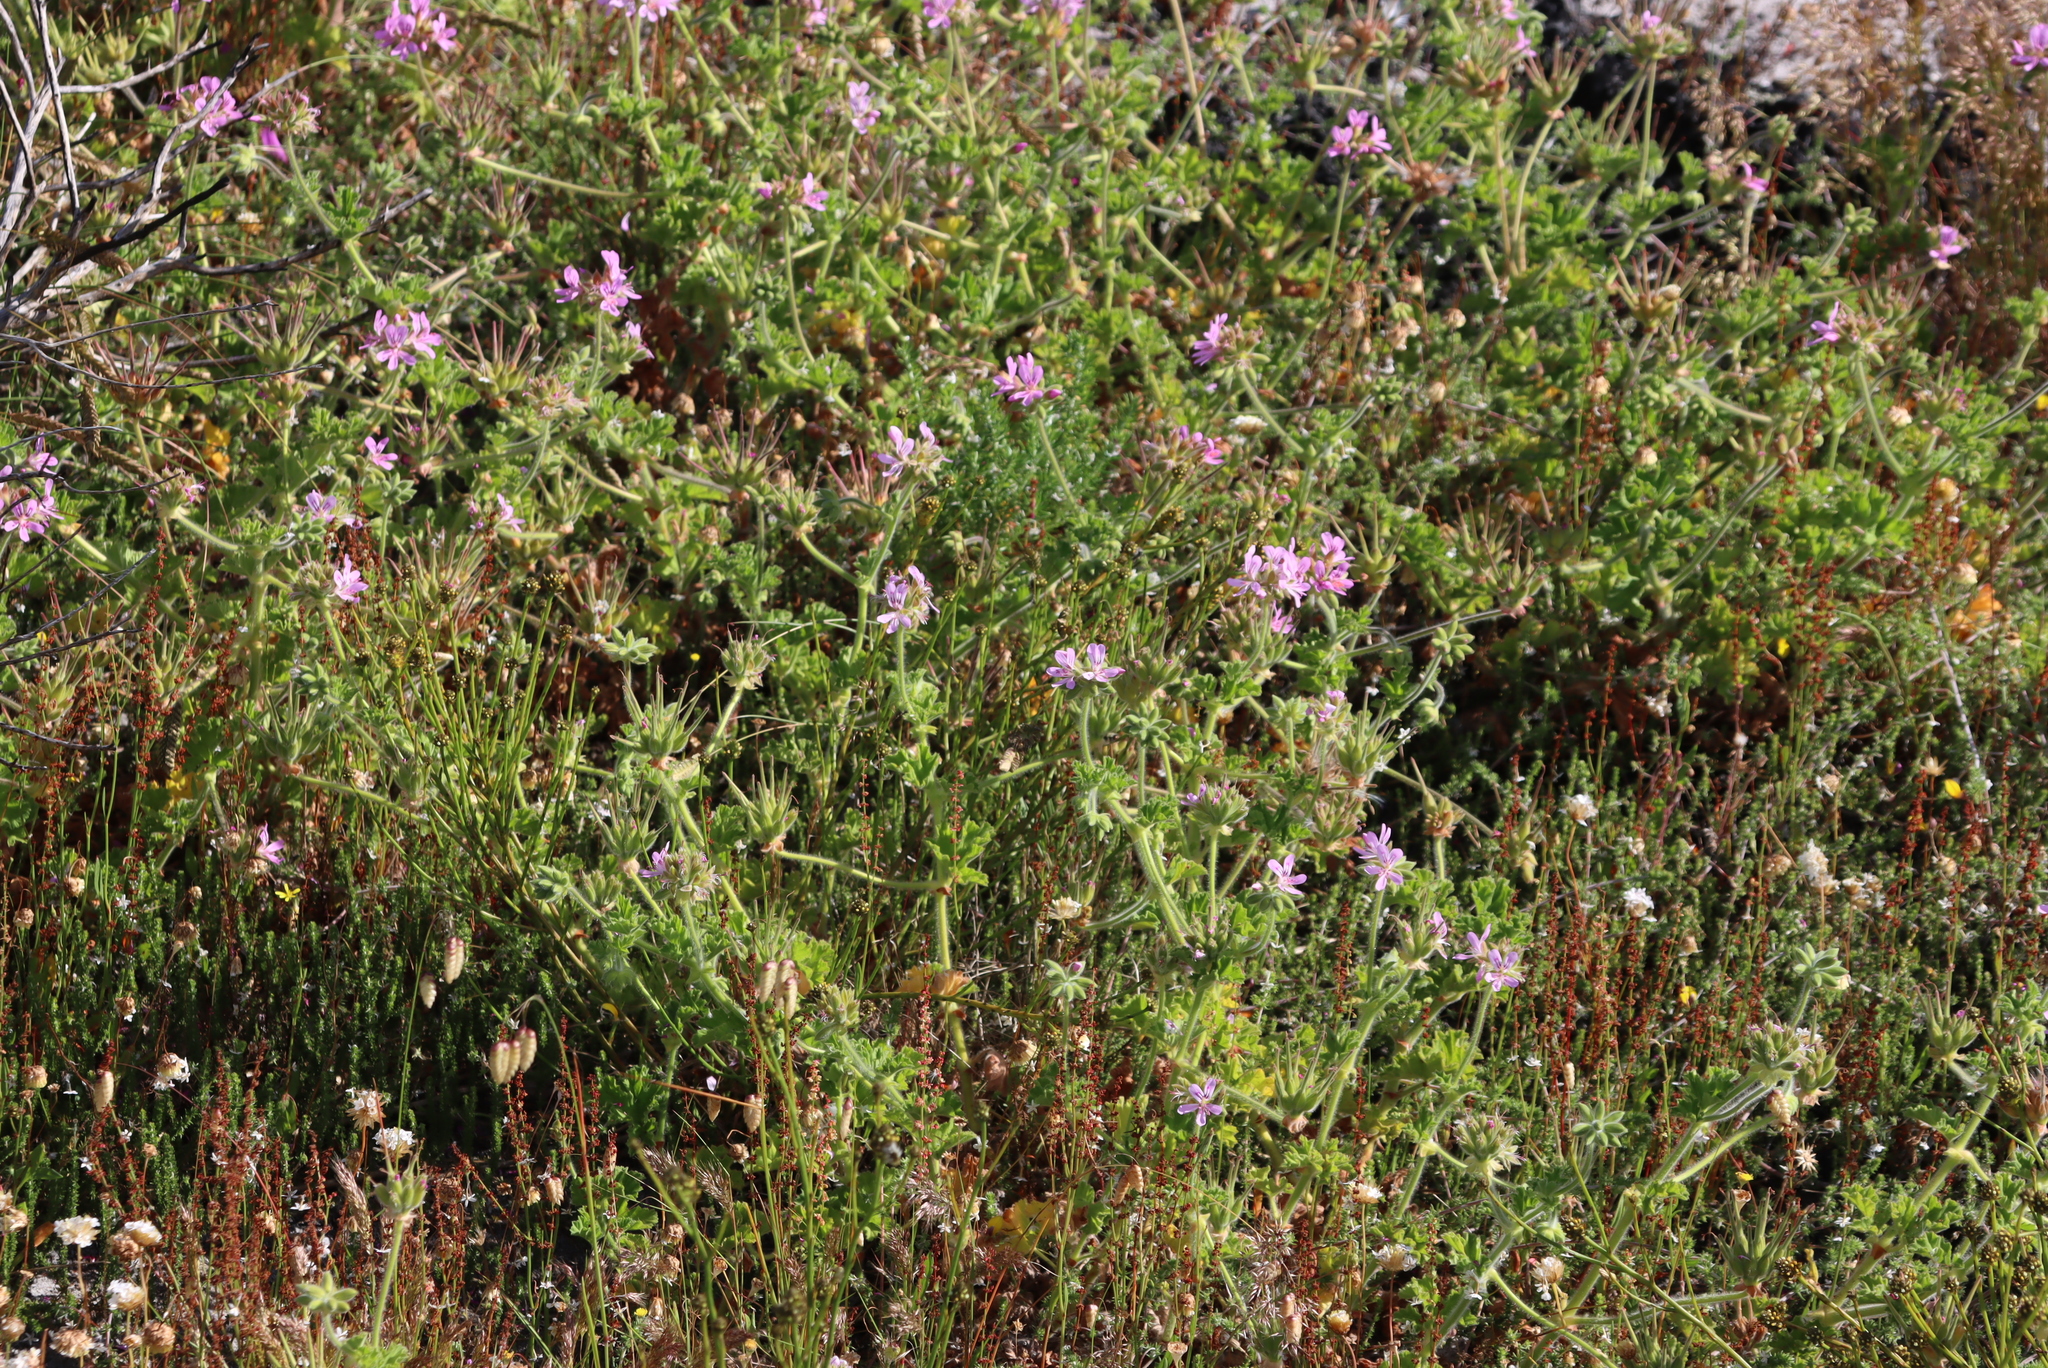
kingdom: Plantae
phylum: Tracheophyta
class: Magnoliopsida
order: Geraniales
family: Geraniaceae
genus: Pelargonium
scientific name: Pelargonium capitatum
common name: Rose scented geranium
